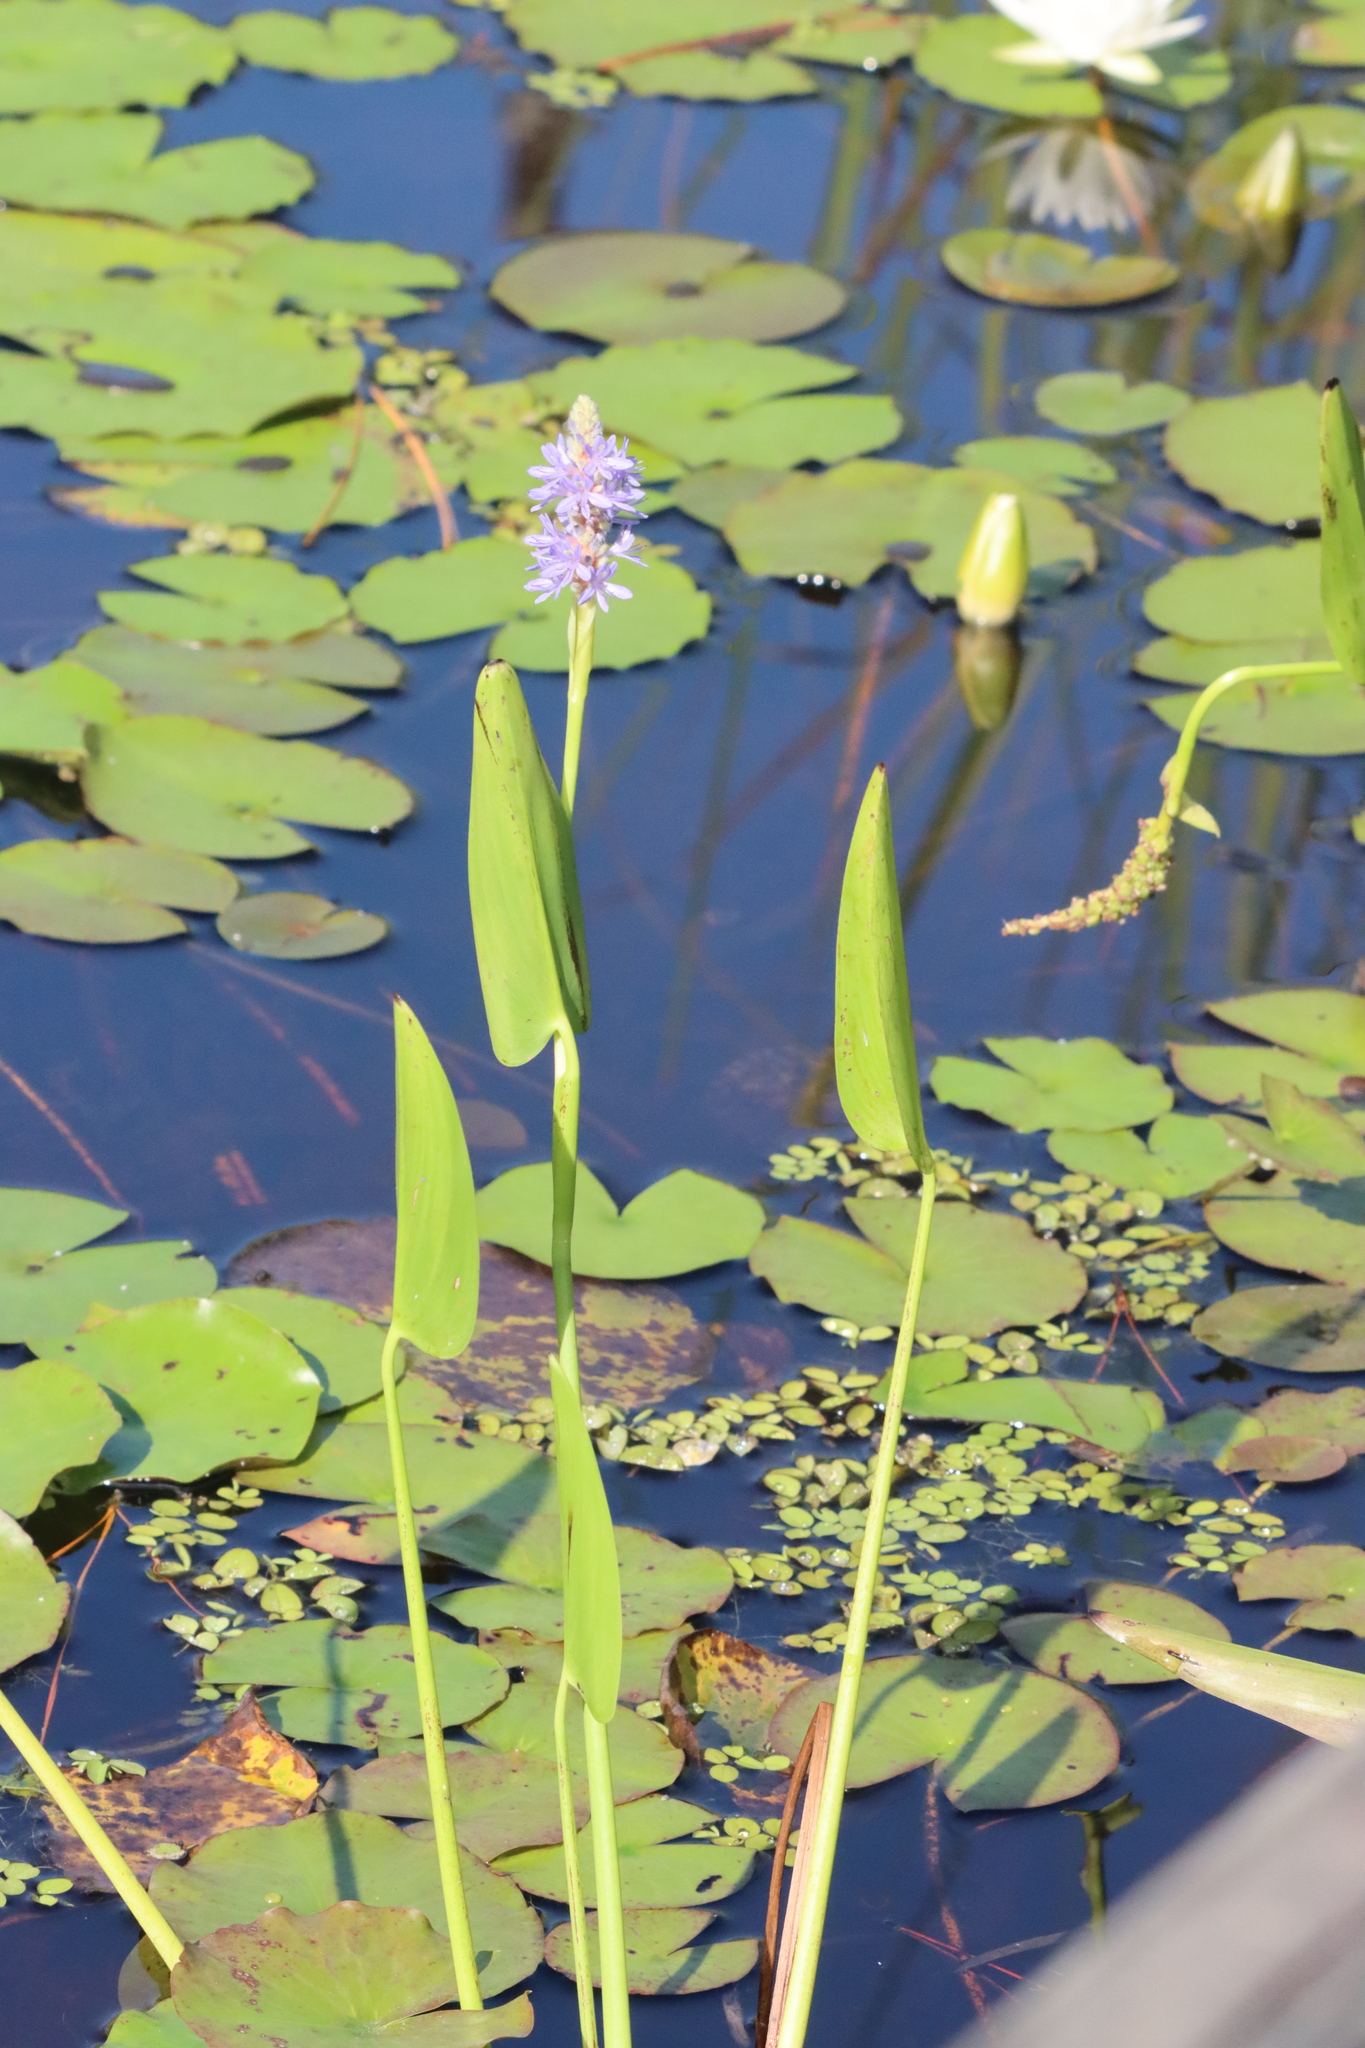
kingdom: Plantae
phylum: Tracheophyta
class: Liliopsida
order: Commelinales
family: Pontederiaceae
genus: Pontederia
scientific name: Pontederia cordata
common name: Pickerelweed
